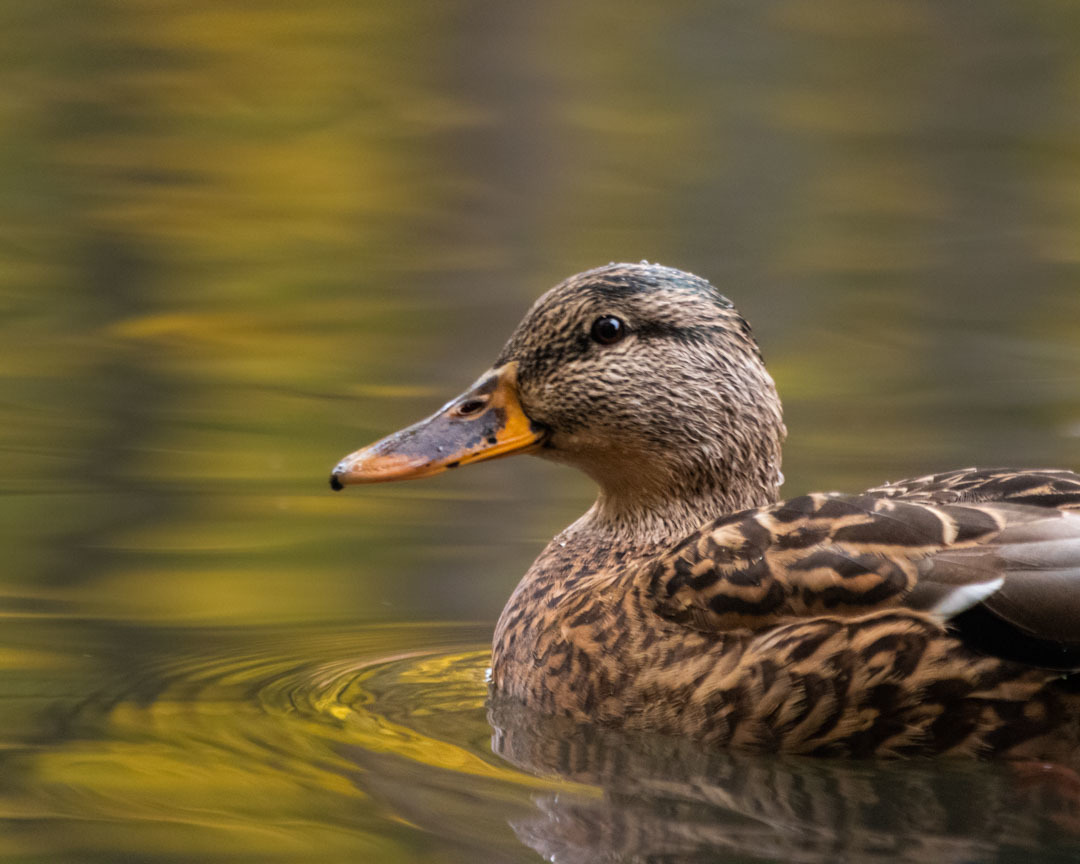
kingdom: Animalia
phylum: Chordata
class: Aves
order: Anseriformes
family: Anatidae
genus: Anas
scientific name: Anas platyrhynchos
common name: Mallard
